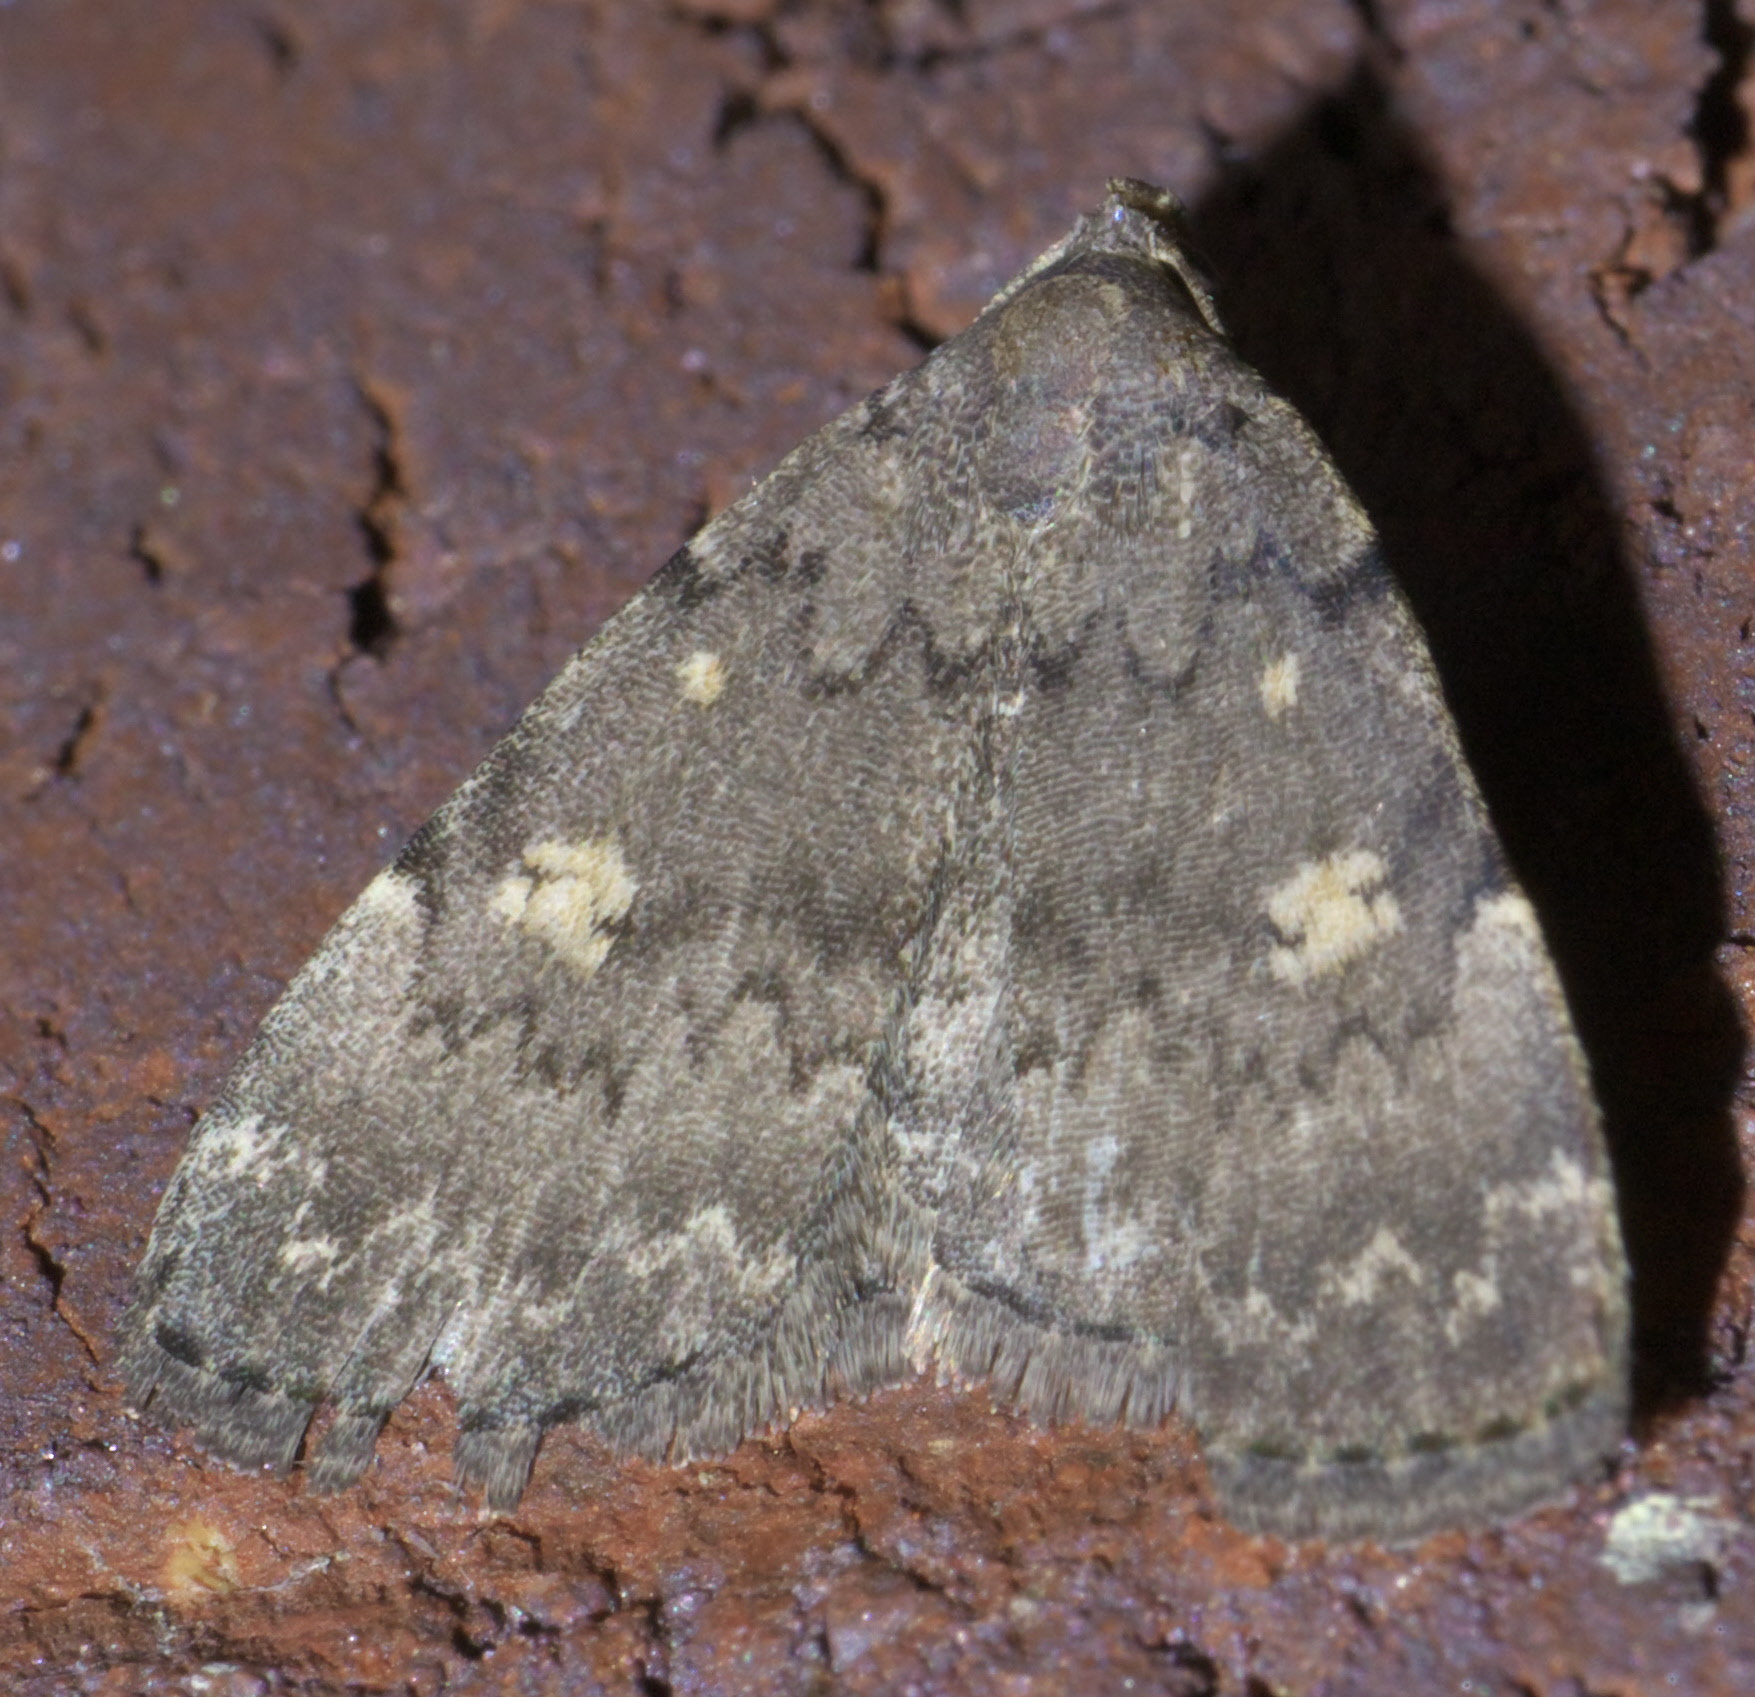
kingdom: Animalia
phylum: Arthropoda
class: Insecta
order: Lepidoptera
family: Erebidae
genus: Idia
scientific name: Idia aemula
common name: Common idia moth
